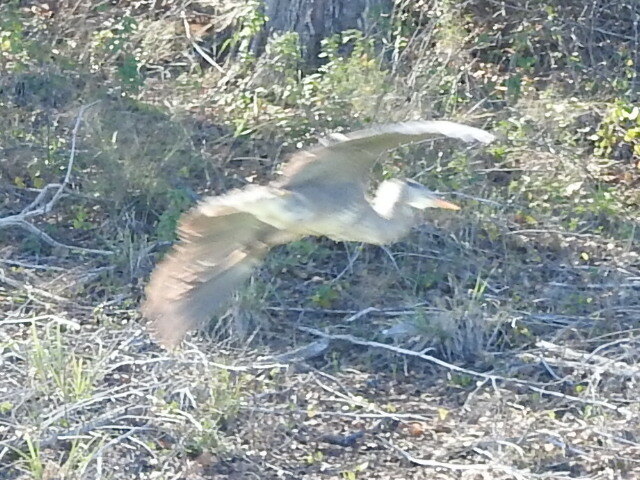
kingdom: Animalia
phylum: Chordata
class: Aves
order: Pelecaniformes
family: Ardeidae
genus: Ardea
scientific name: Ardea herodias
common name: Great blue heron
